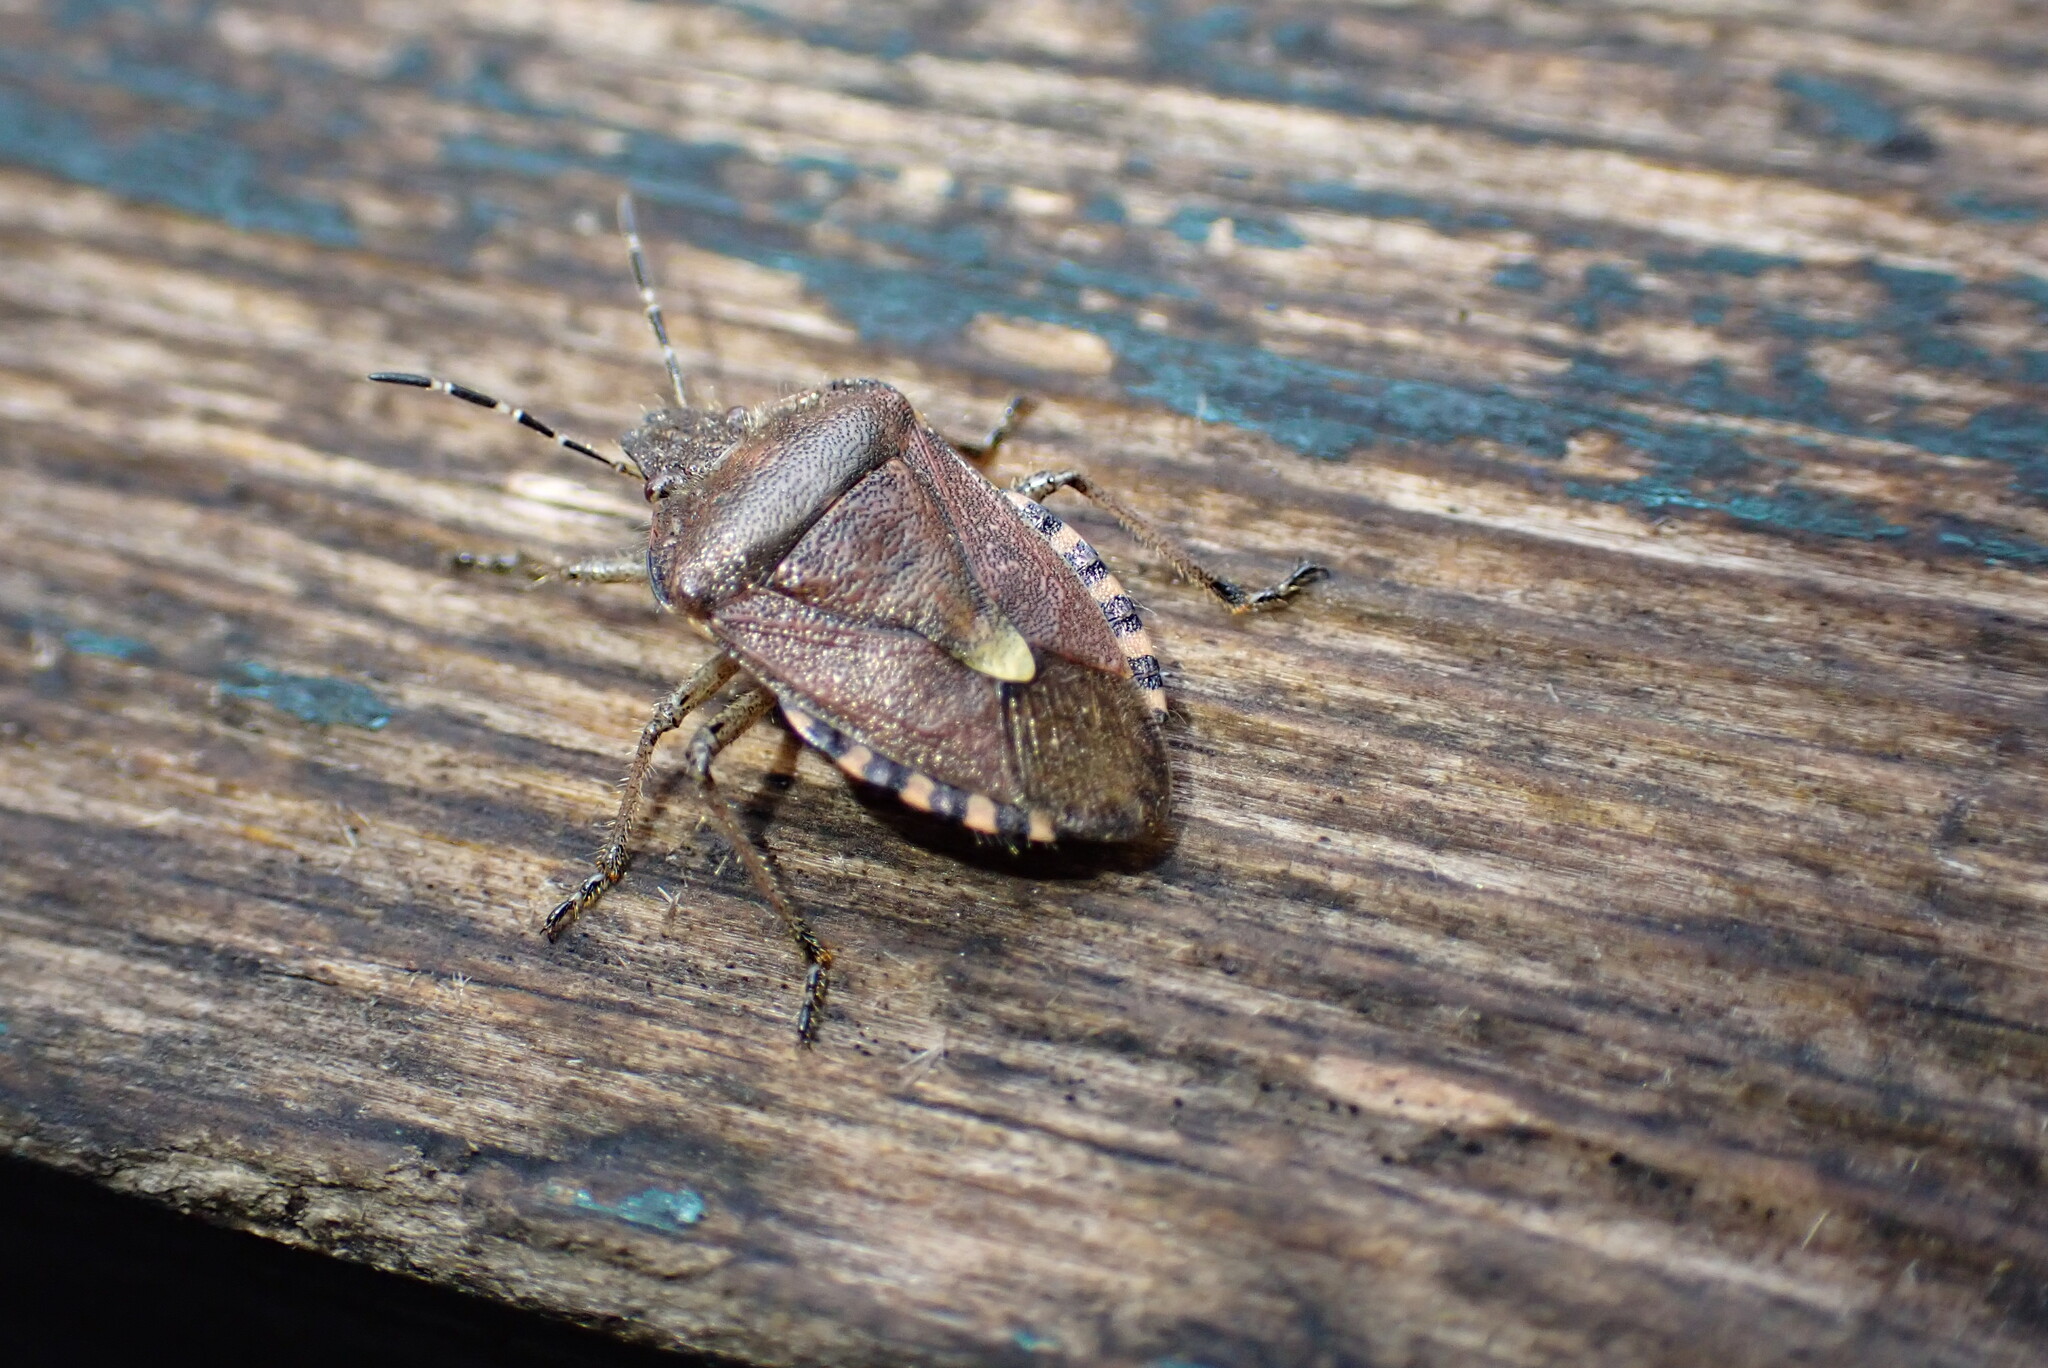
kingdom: Animalia
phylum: Arthropoda
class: Insecta
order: Hemiptera
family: Pentatomidae
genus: Dolycoris
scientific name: Dolycoris baccarum
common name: Sloe bug
